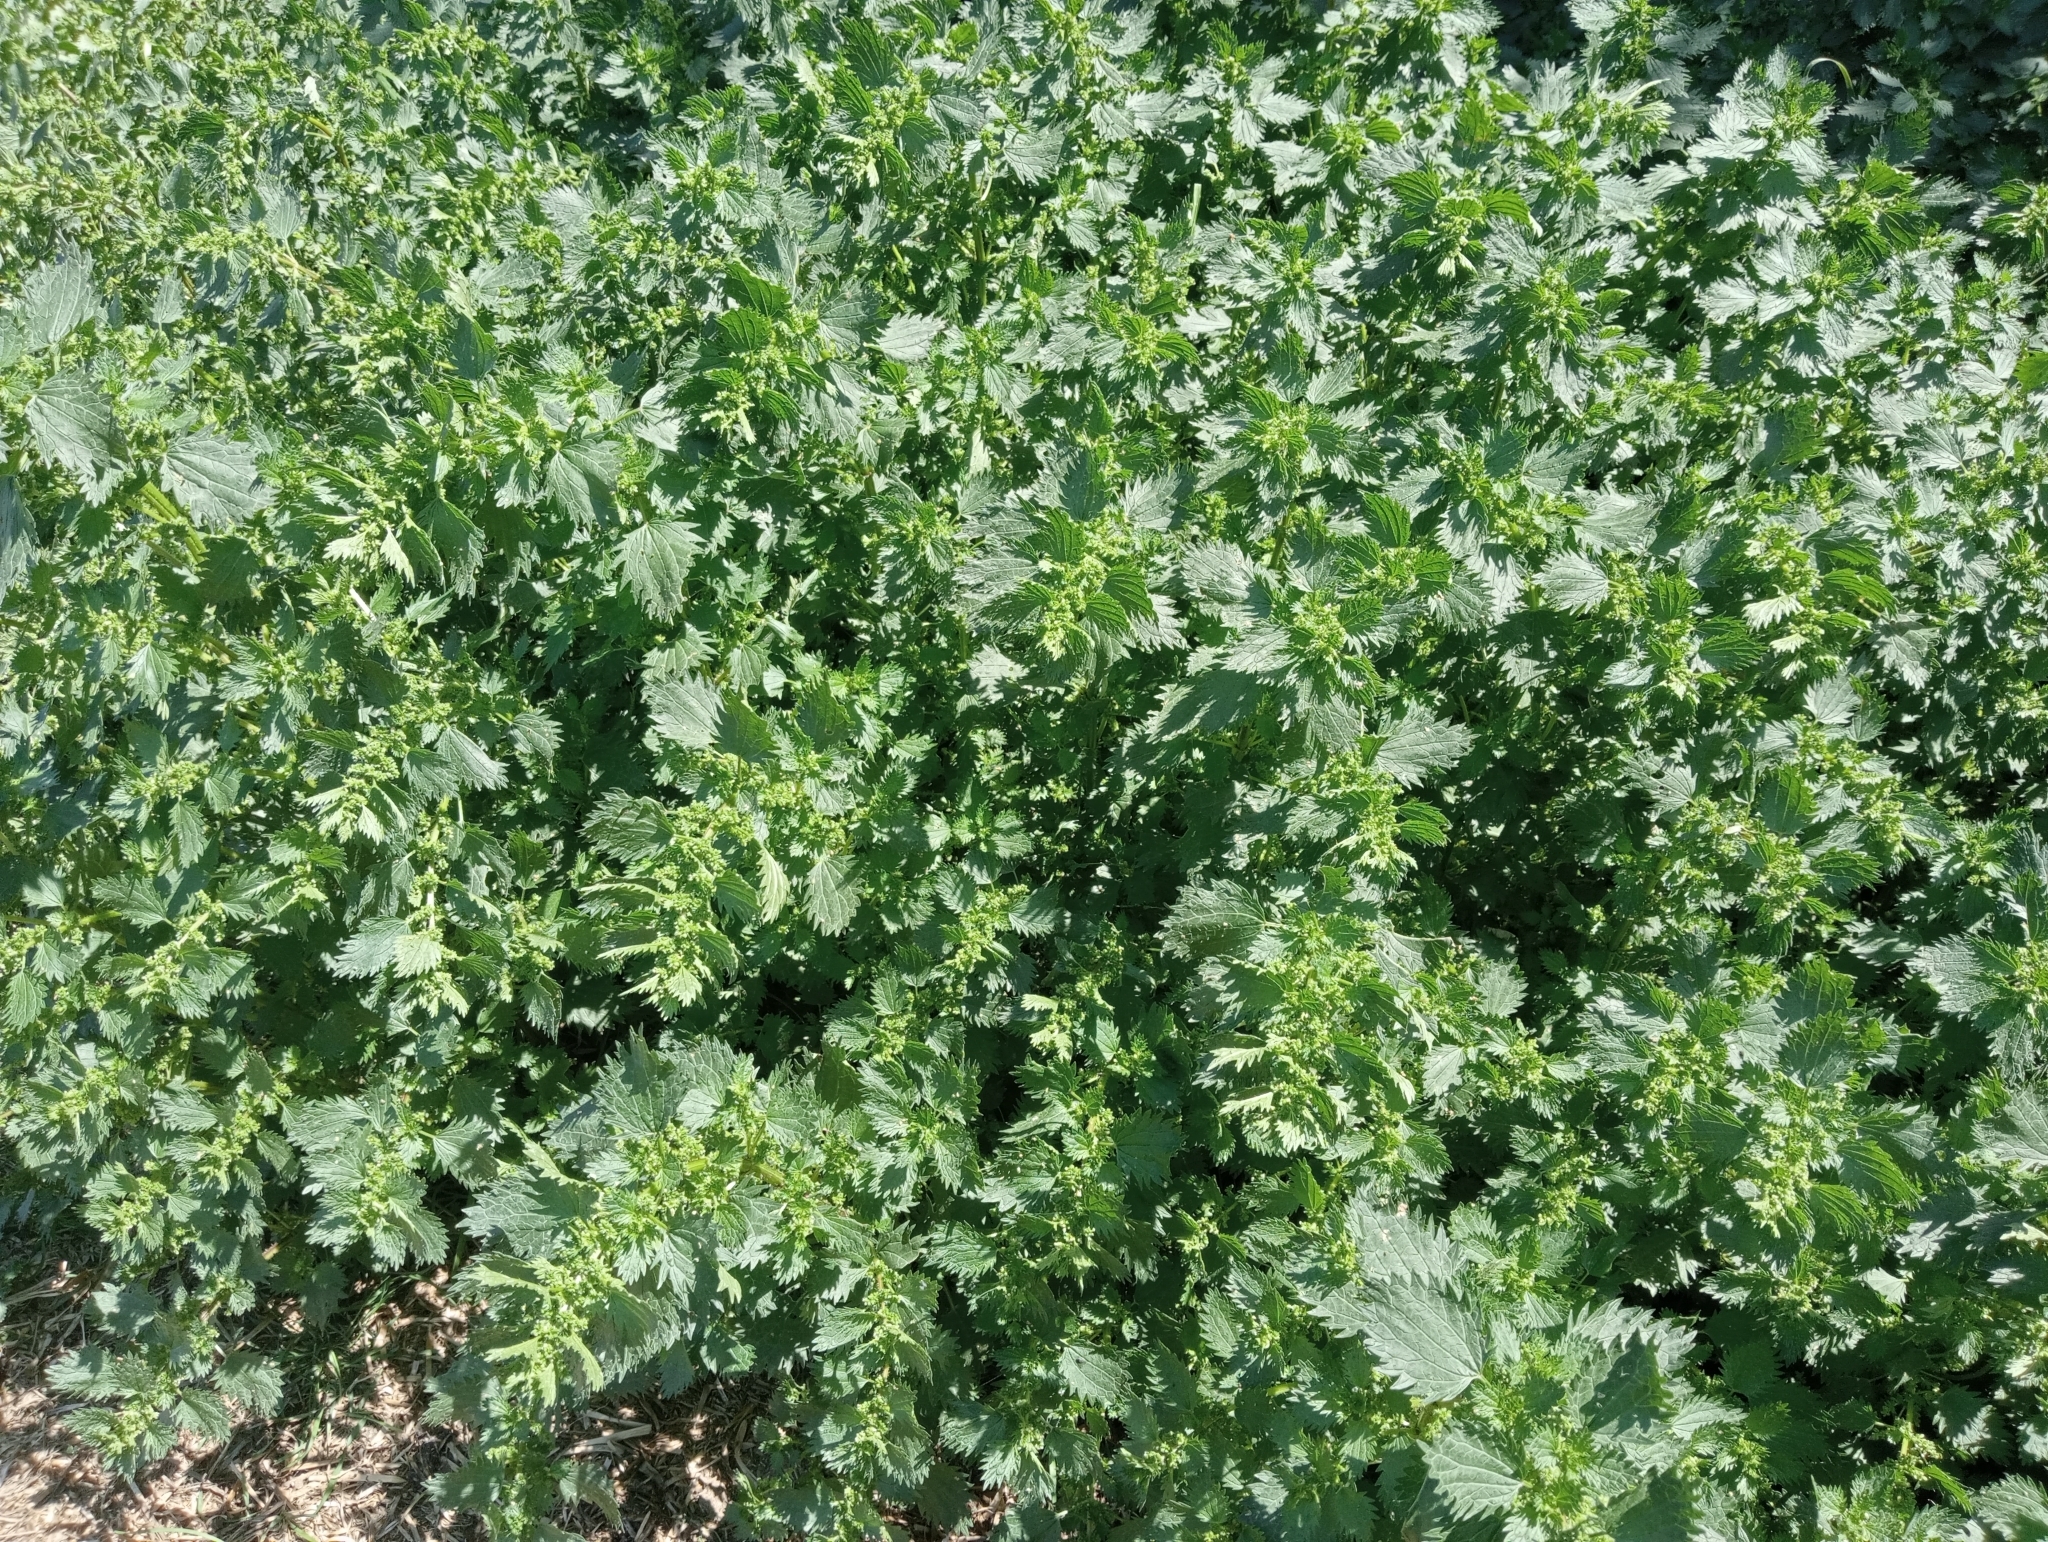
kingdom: Plantae
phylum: Tracheophyta
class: Magnoliopsida
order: Rosales
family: Urticaceae
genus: Urtica
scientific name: Urtica urens
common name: Dwarf nettle
